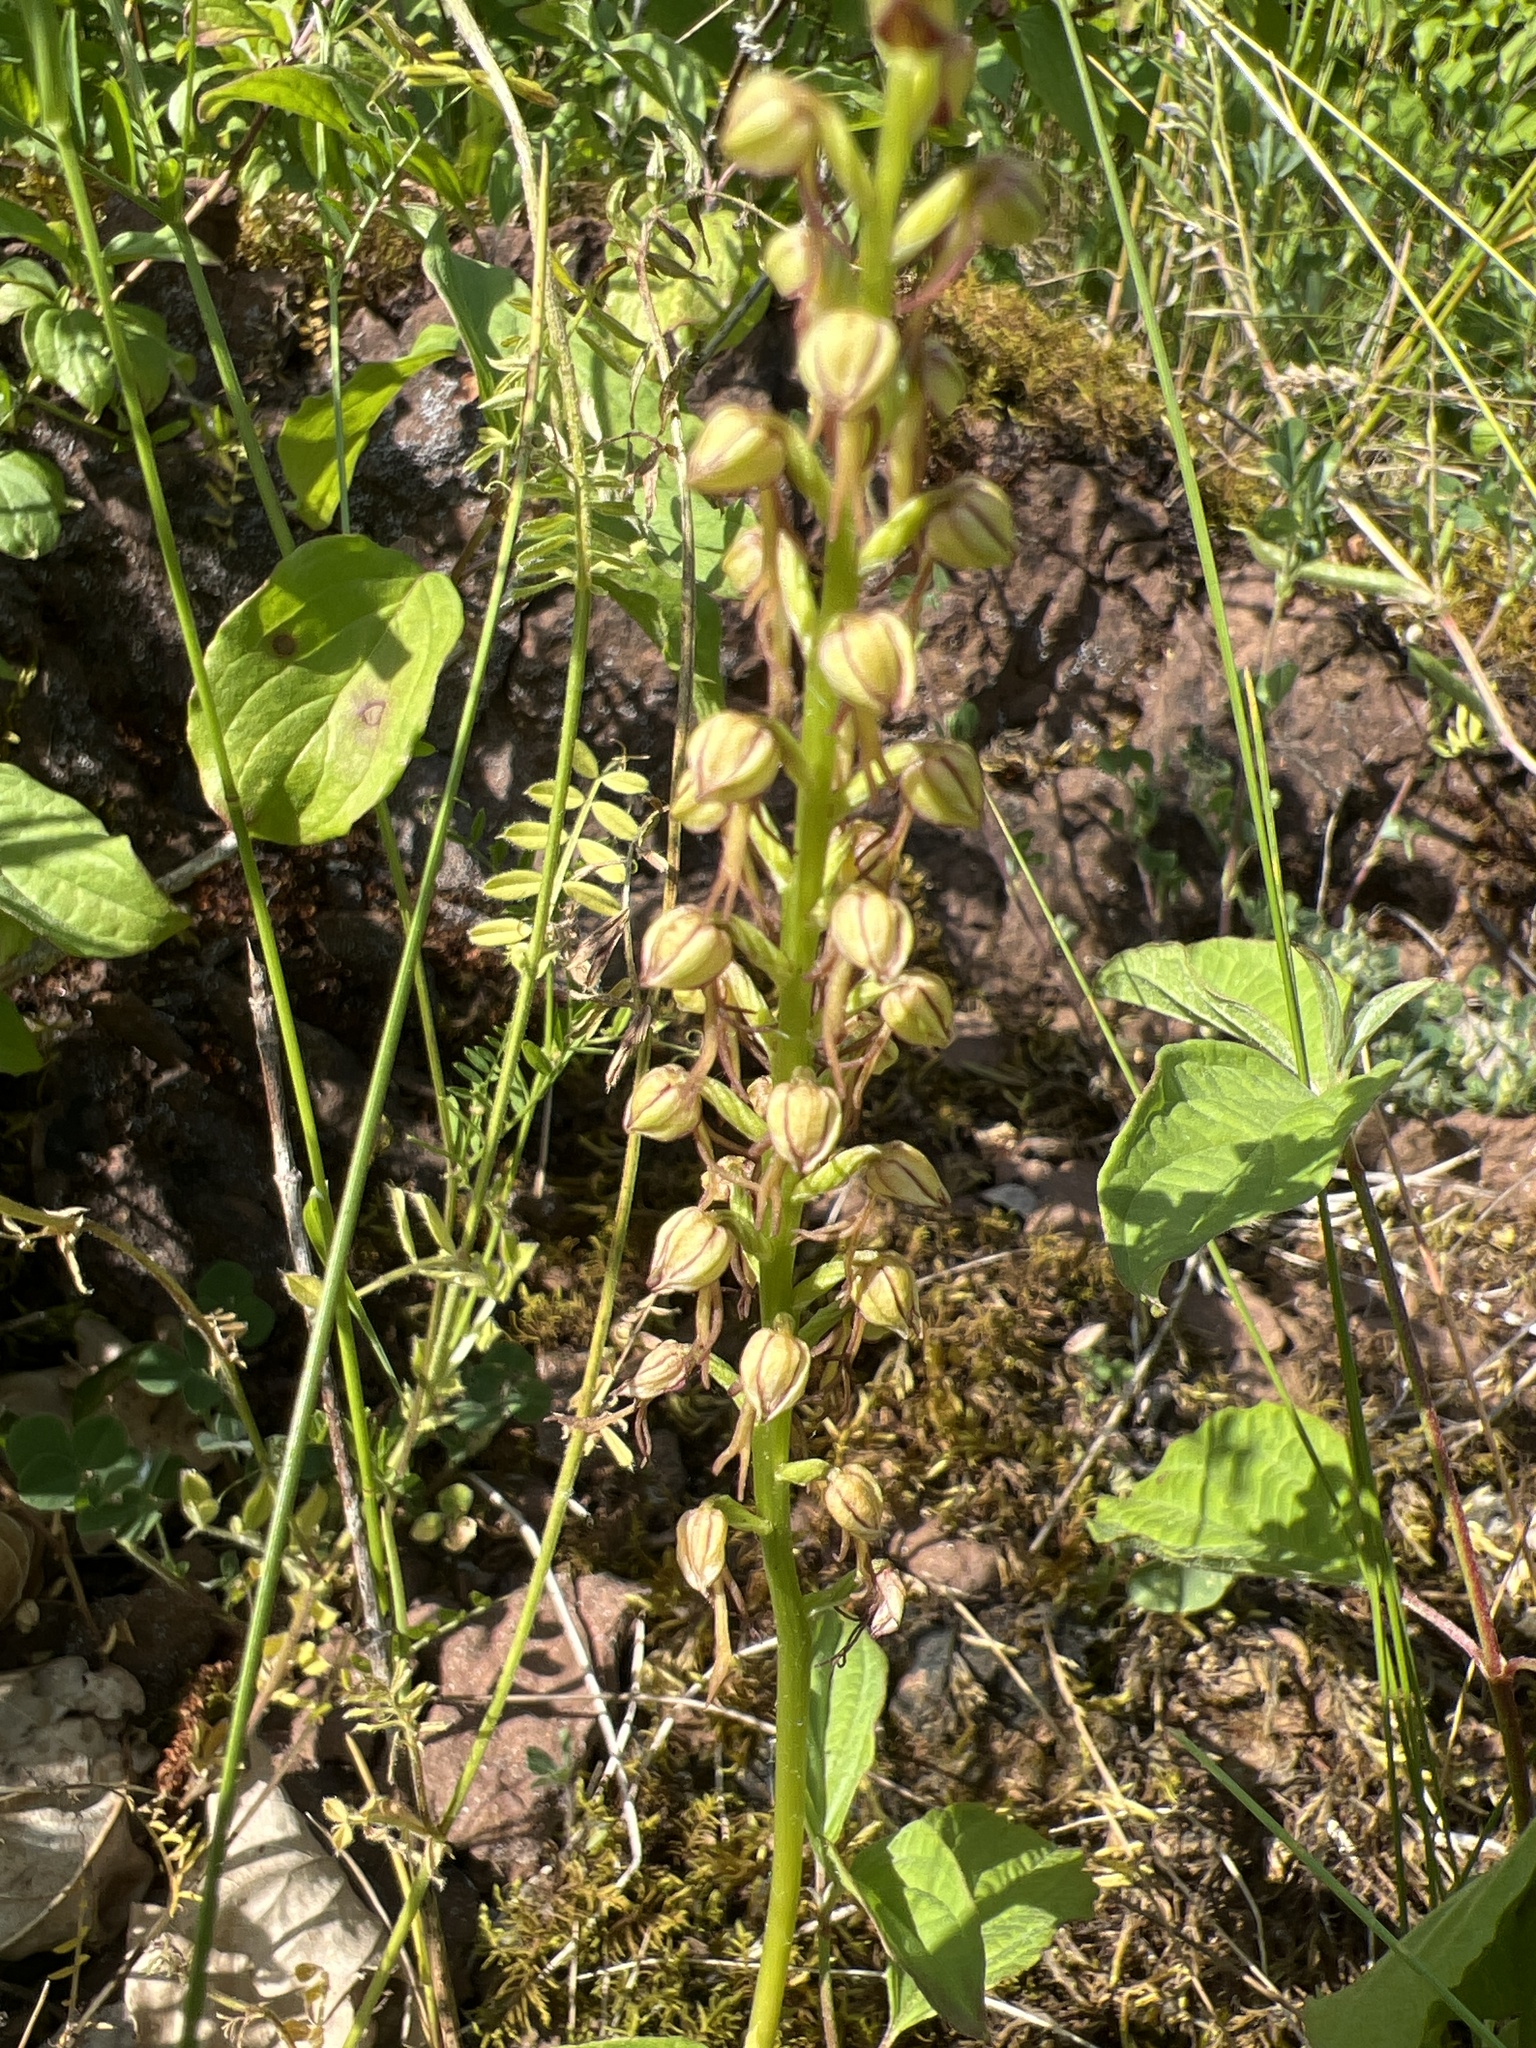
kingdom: Plantae
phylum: Tracheophyta
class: Liliopsida
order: Asparagales
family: Orchidaceae
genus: Orchis
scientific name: Orchis anthropophora
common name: Man orchid
